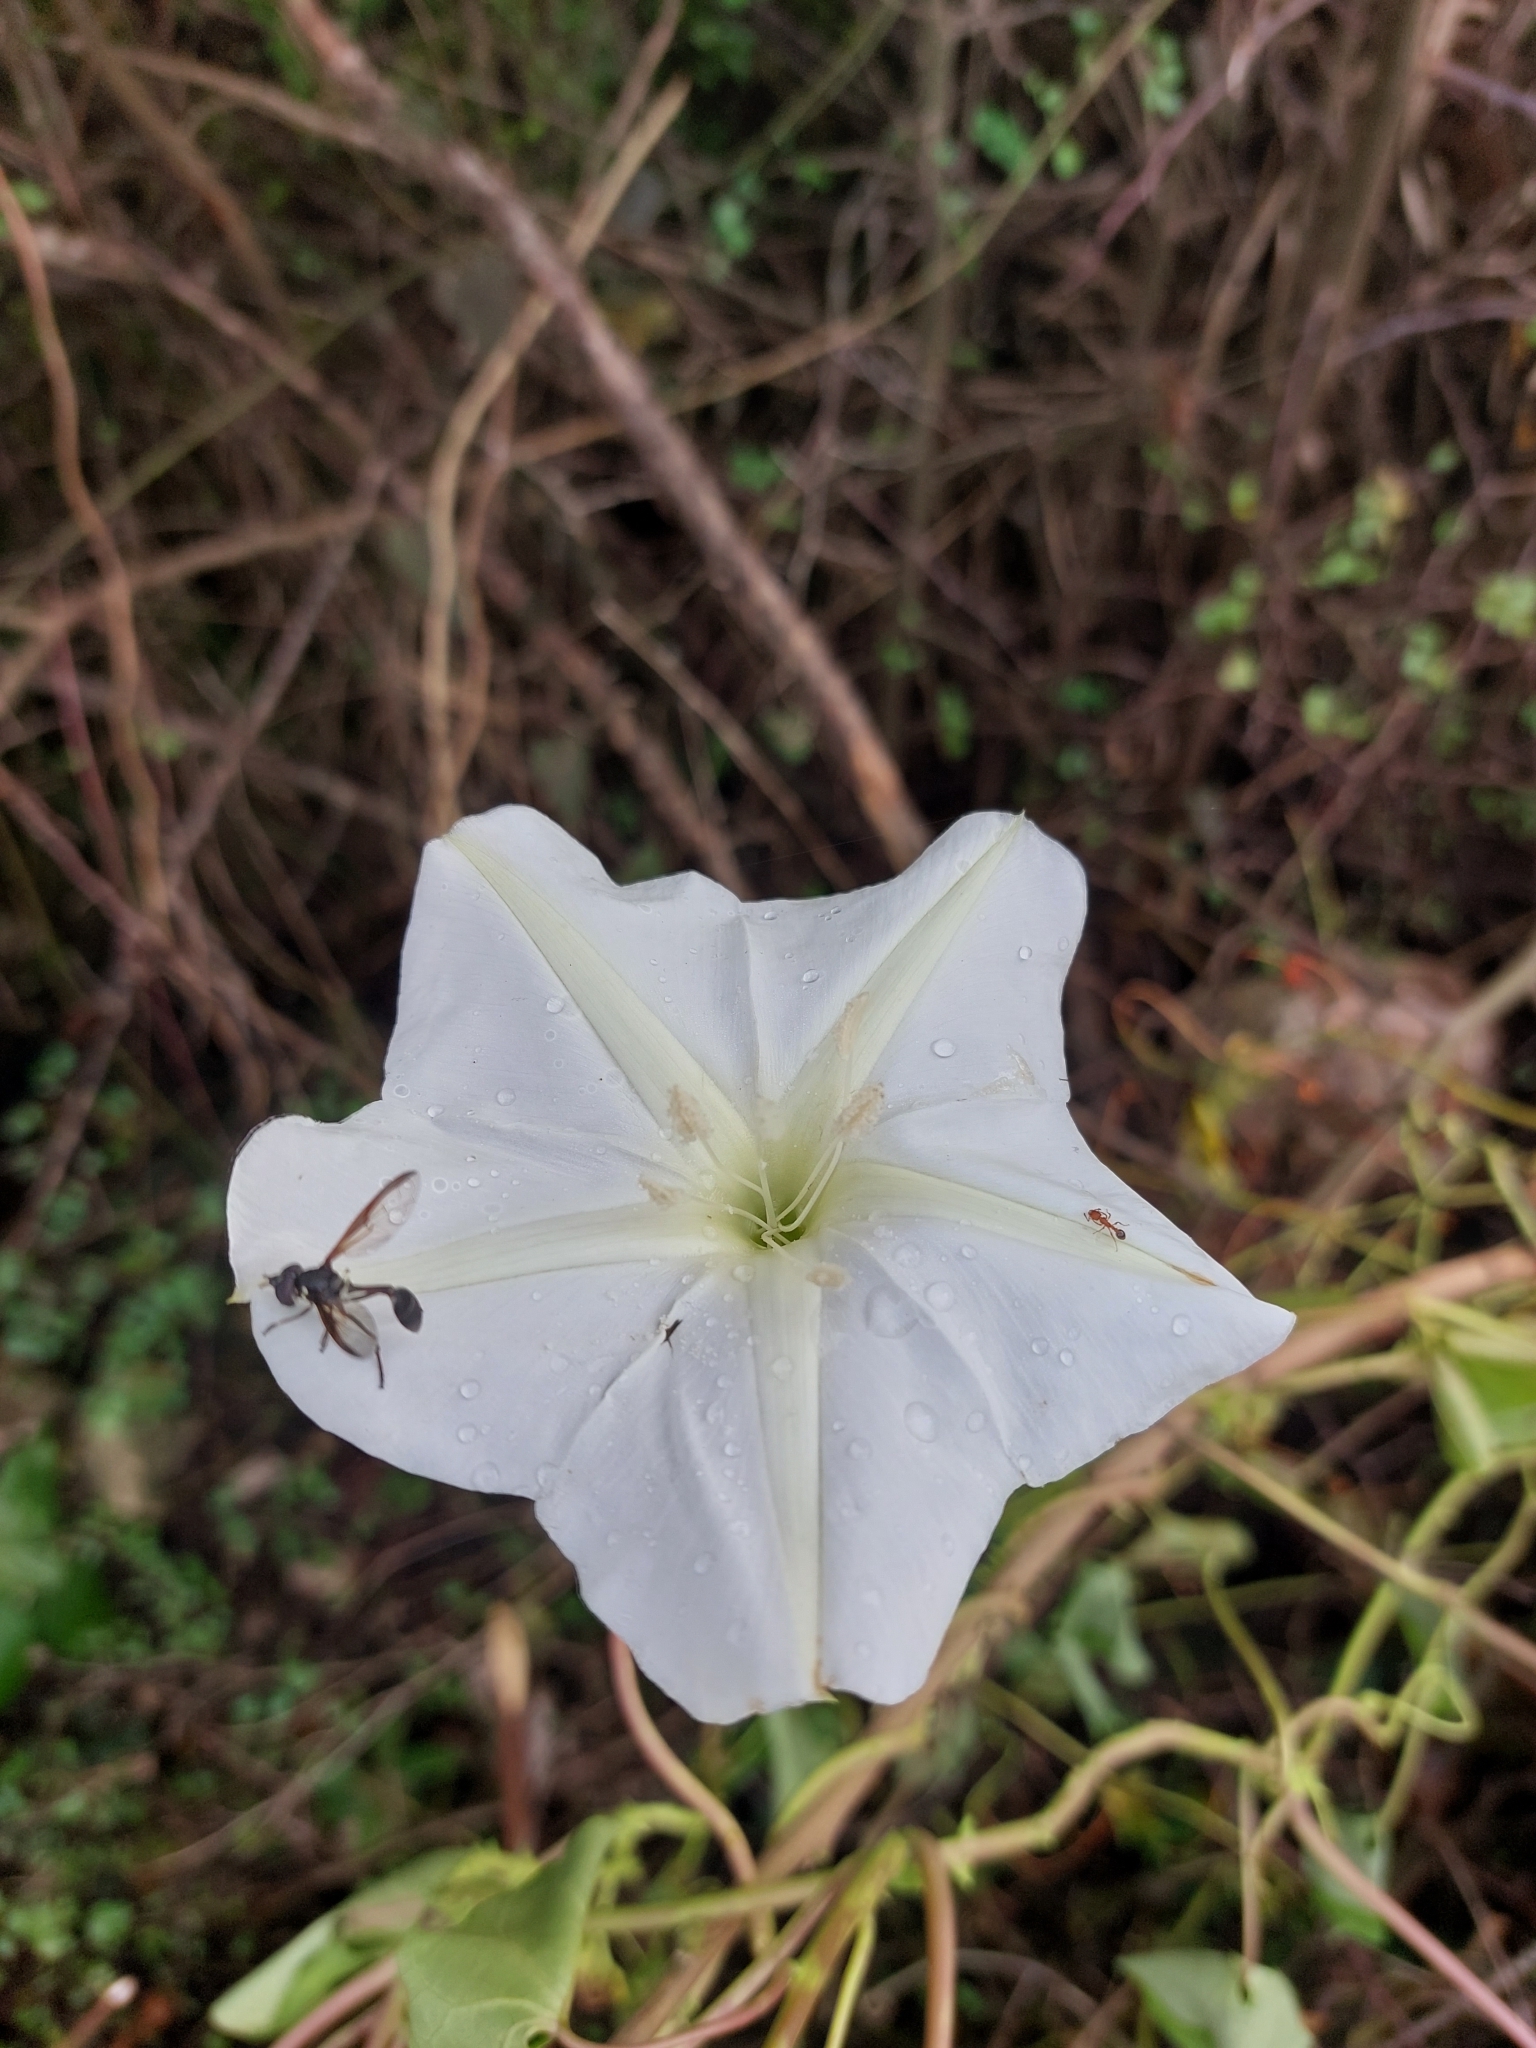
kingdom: Plantae
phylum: Tracheophyta
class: Magnoliopsida
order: Solanales
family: Convolvulaceae
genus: Ipomoea
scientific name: Ipomoea alba
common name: Moonflower
